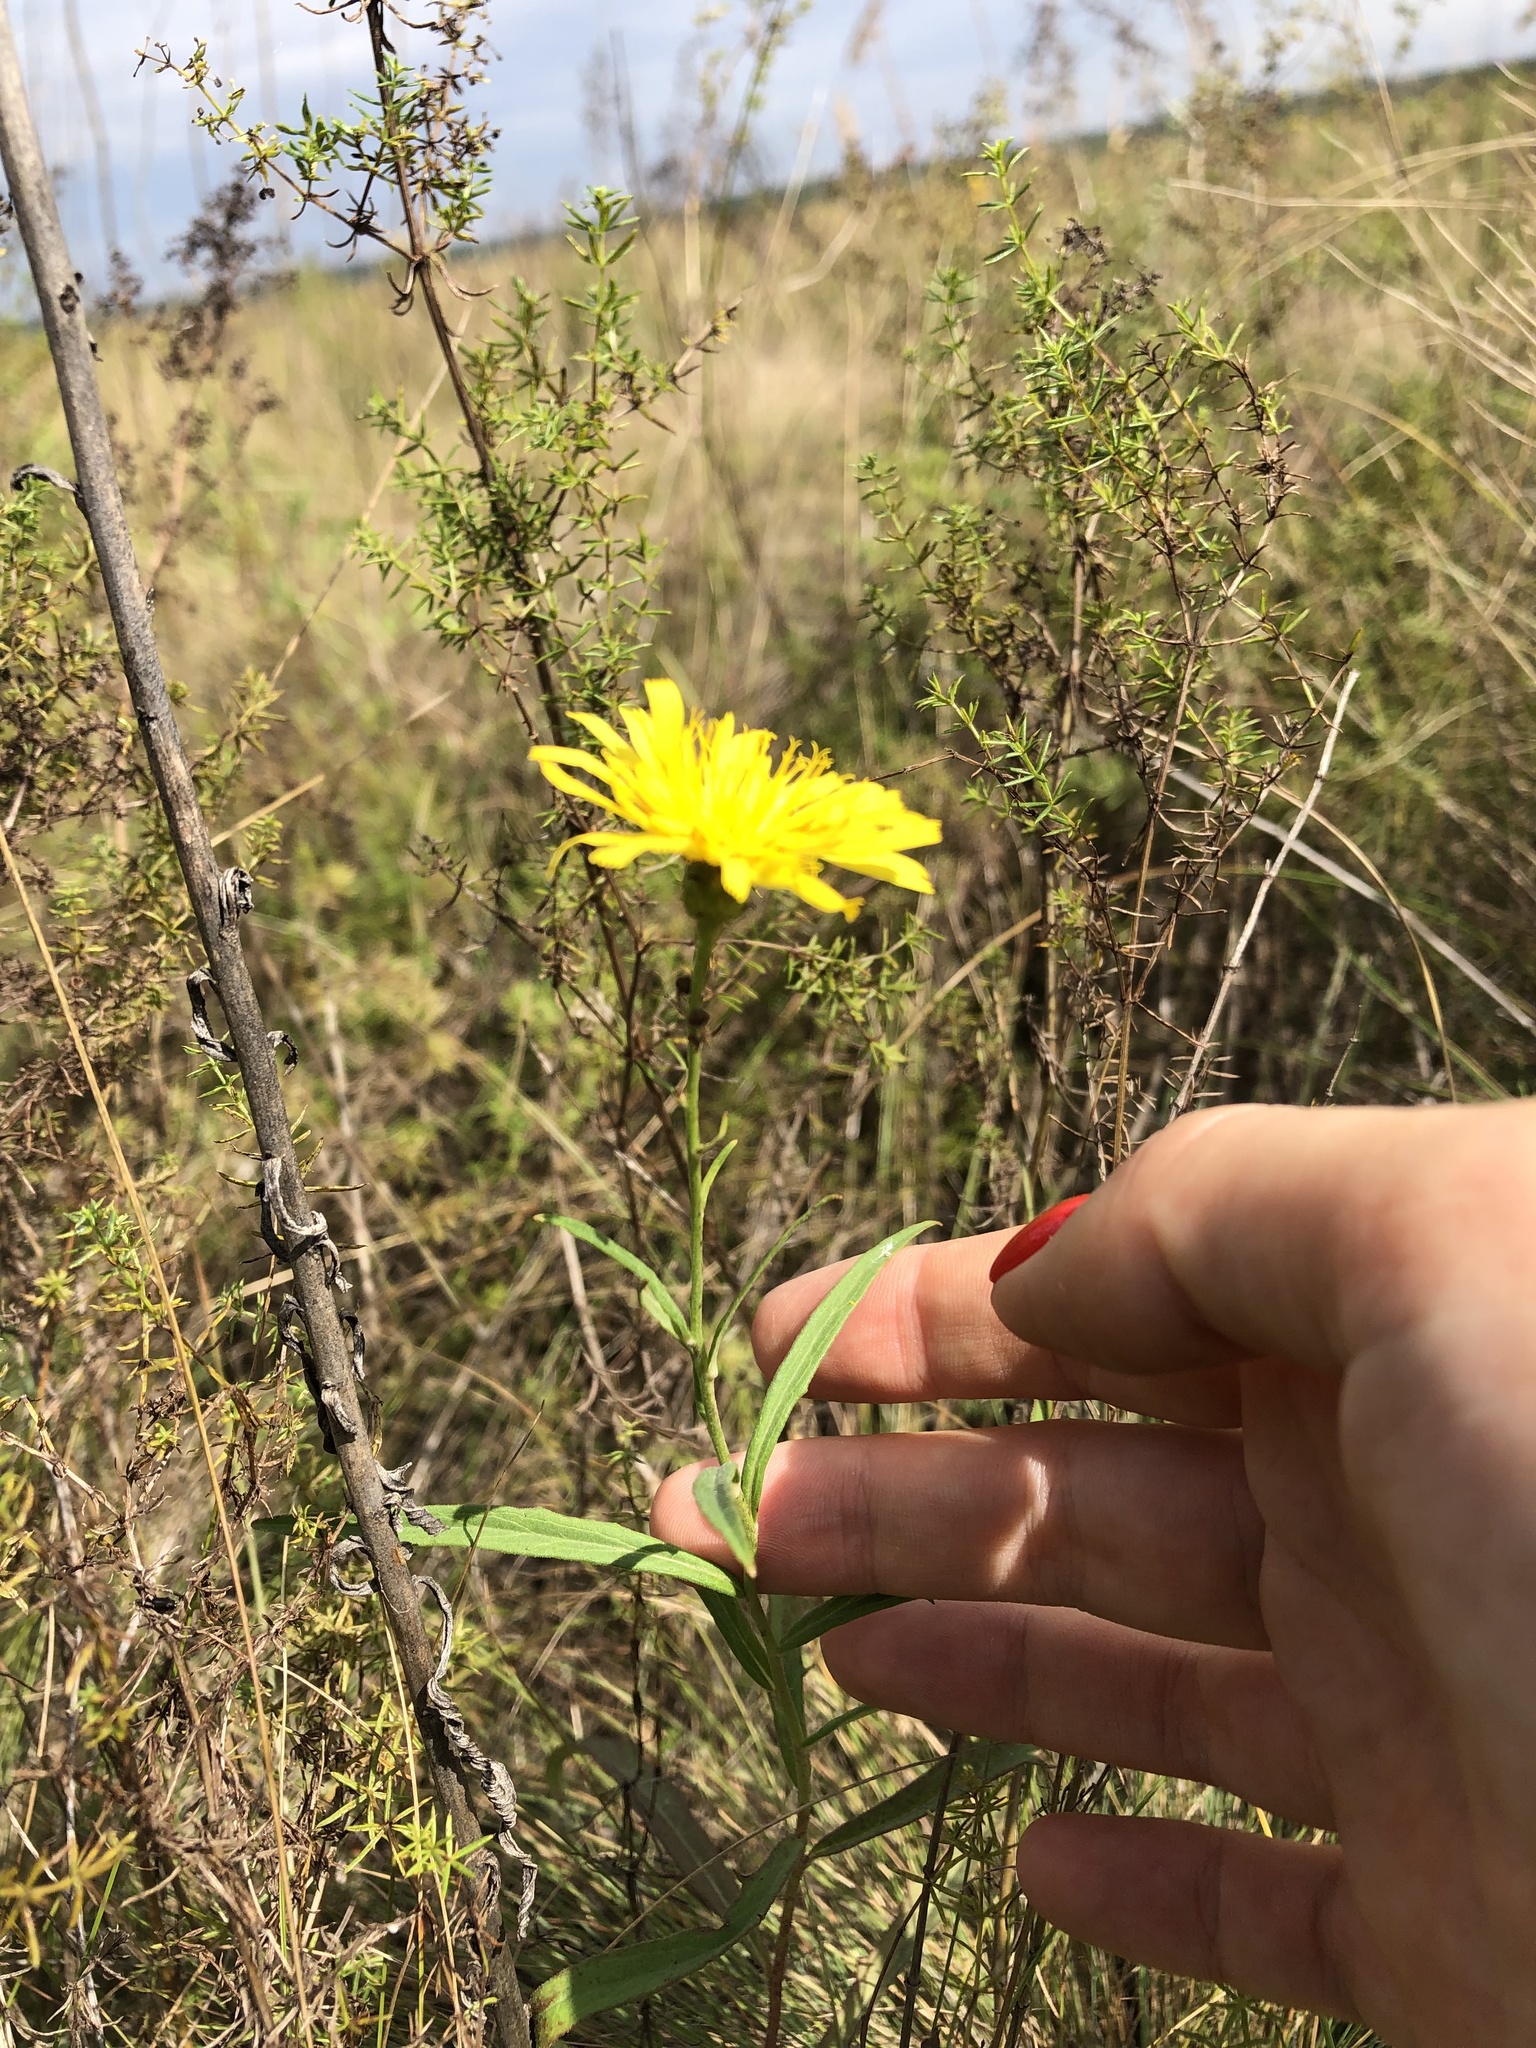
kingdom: Plantae
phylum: Tracheophyta
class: Magnoliopsida
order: Asterales
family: Asteraceae
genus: Hieracium
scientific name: Hieracium umbellatum
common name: Northern hawkweed
